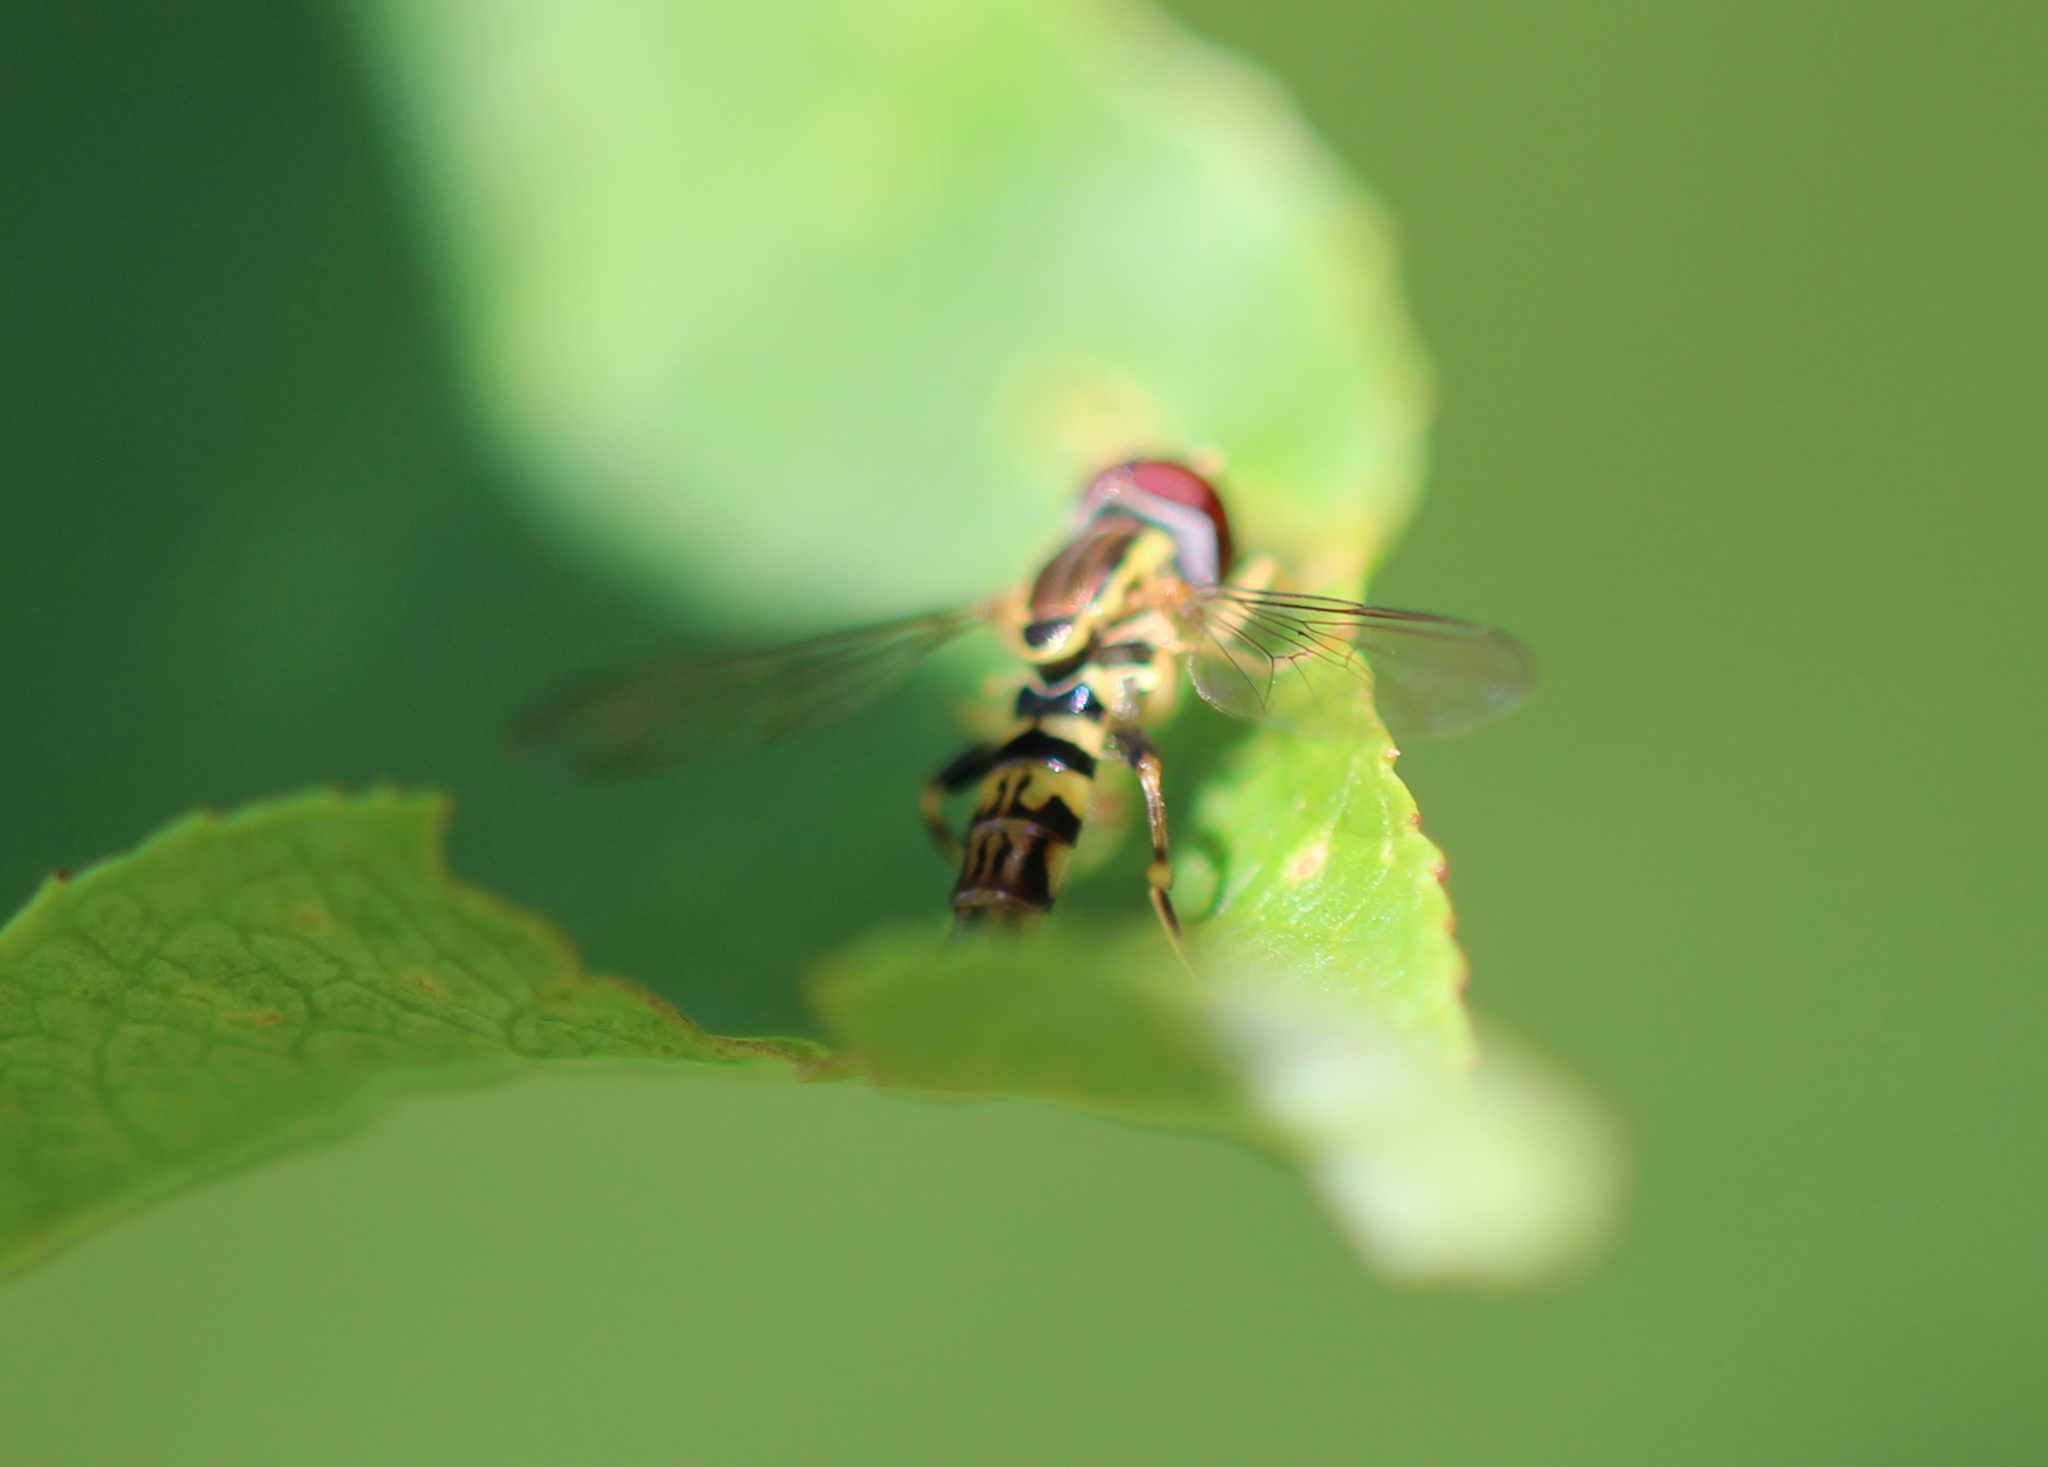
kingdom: Animalia
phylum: Arthropoda
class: Insecta
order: Diptera
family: Syrphidae
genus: Toxomerus
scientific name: Toxomerus geminatus
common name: Eastern calligrapher
